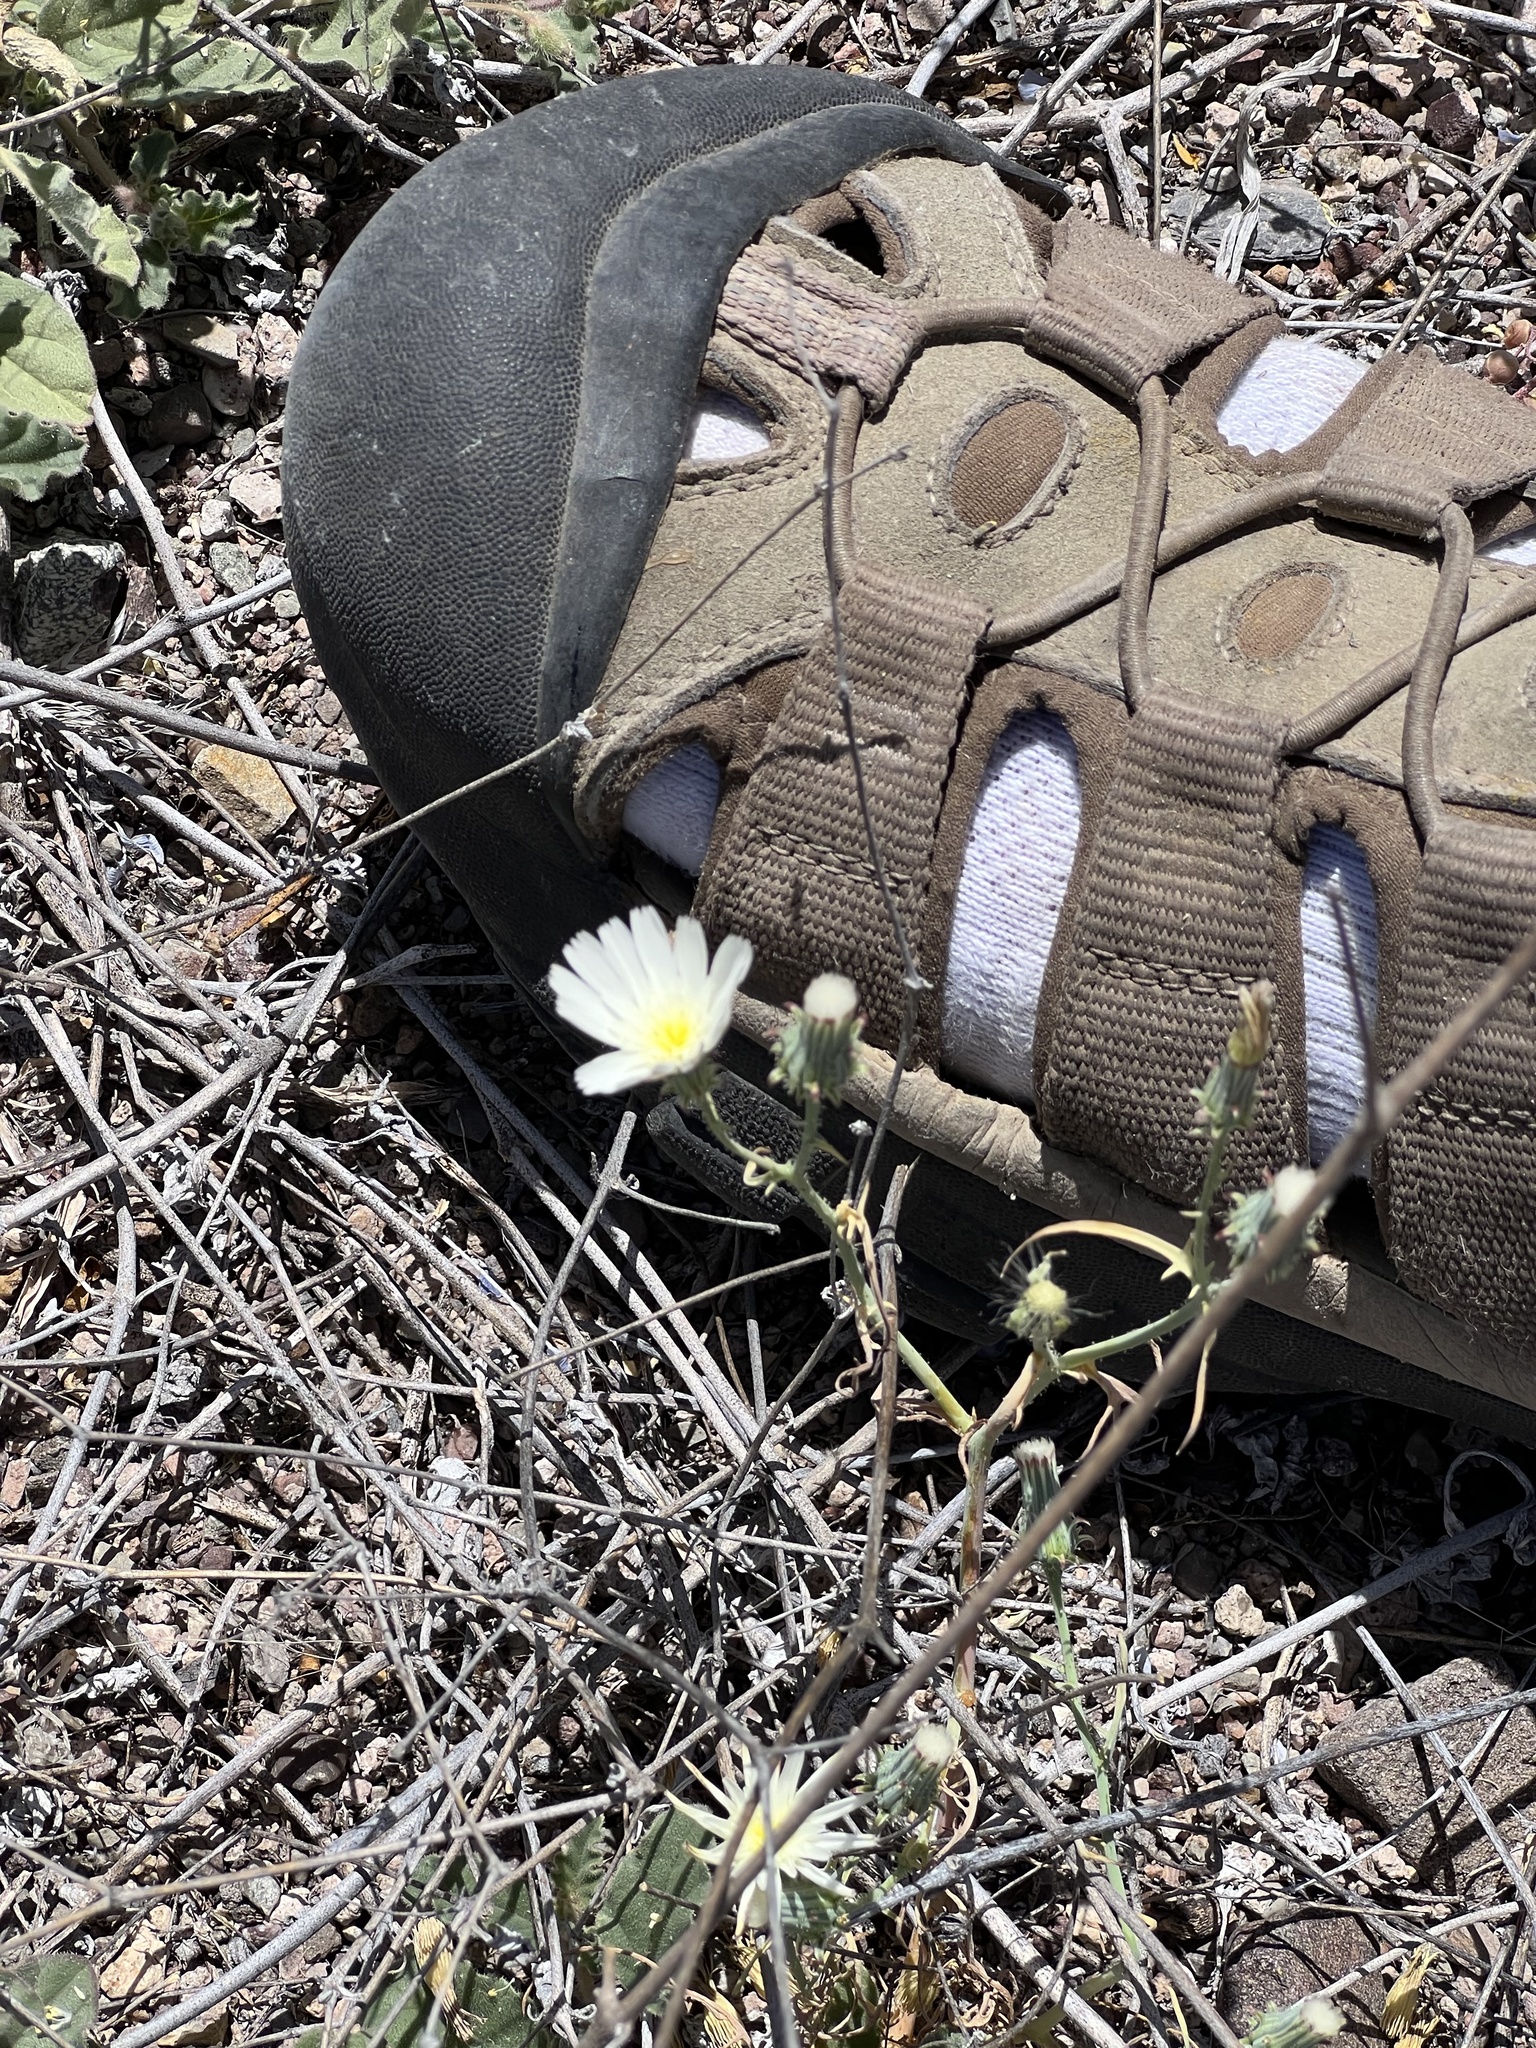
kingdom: Plantae
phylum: Tracheophyta
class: Magnoliopsida
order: Asterales
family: Asteraceae
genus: Calycoseris
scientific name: Calycoseris wrightii
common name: White tackstem
